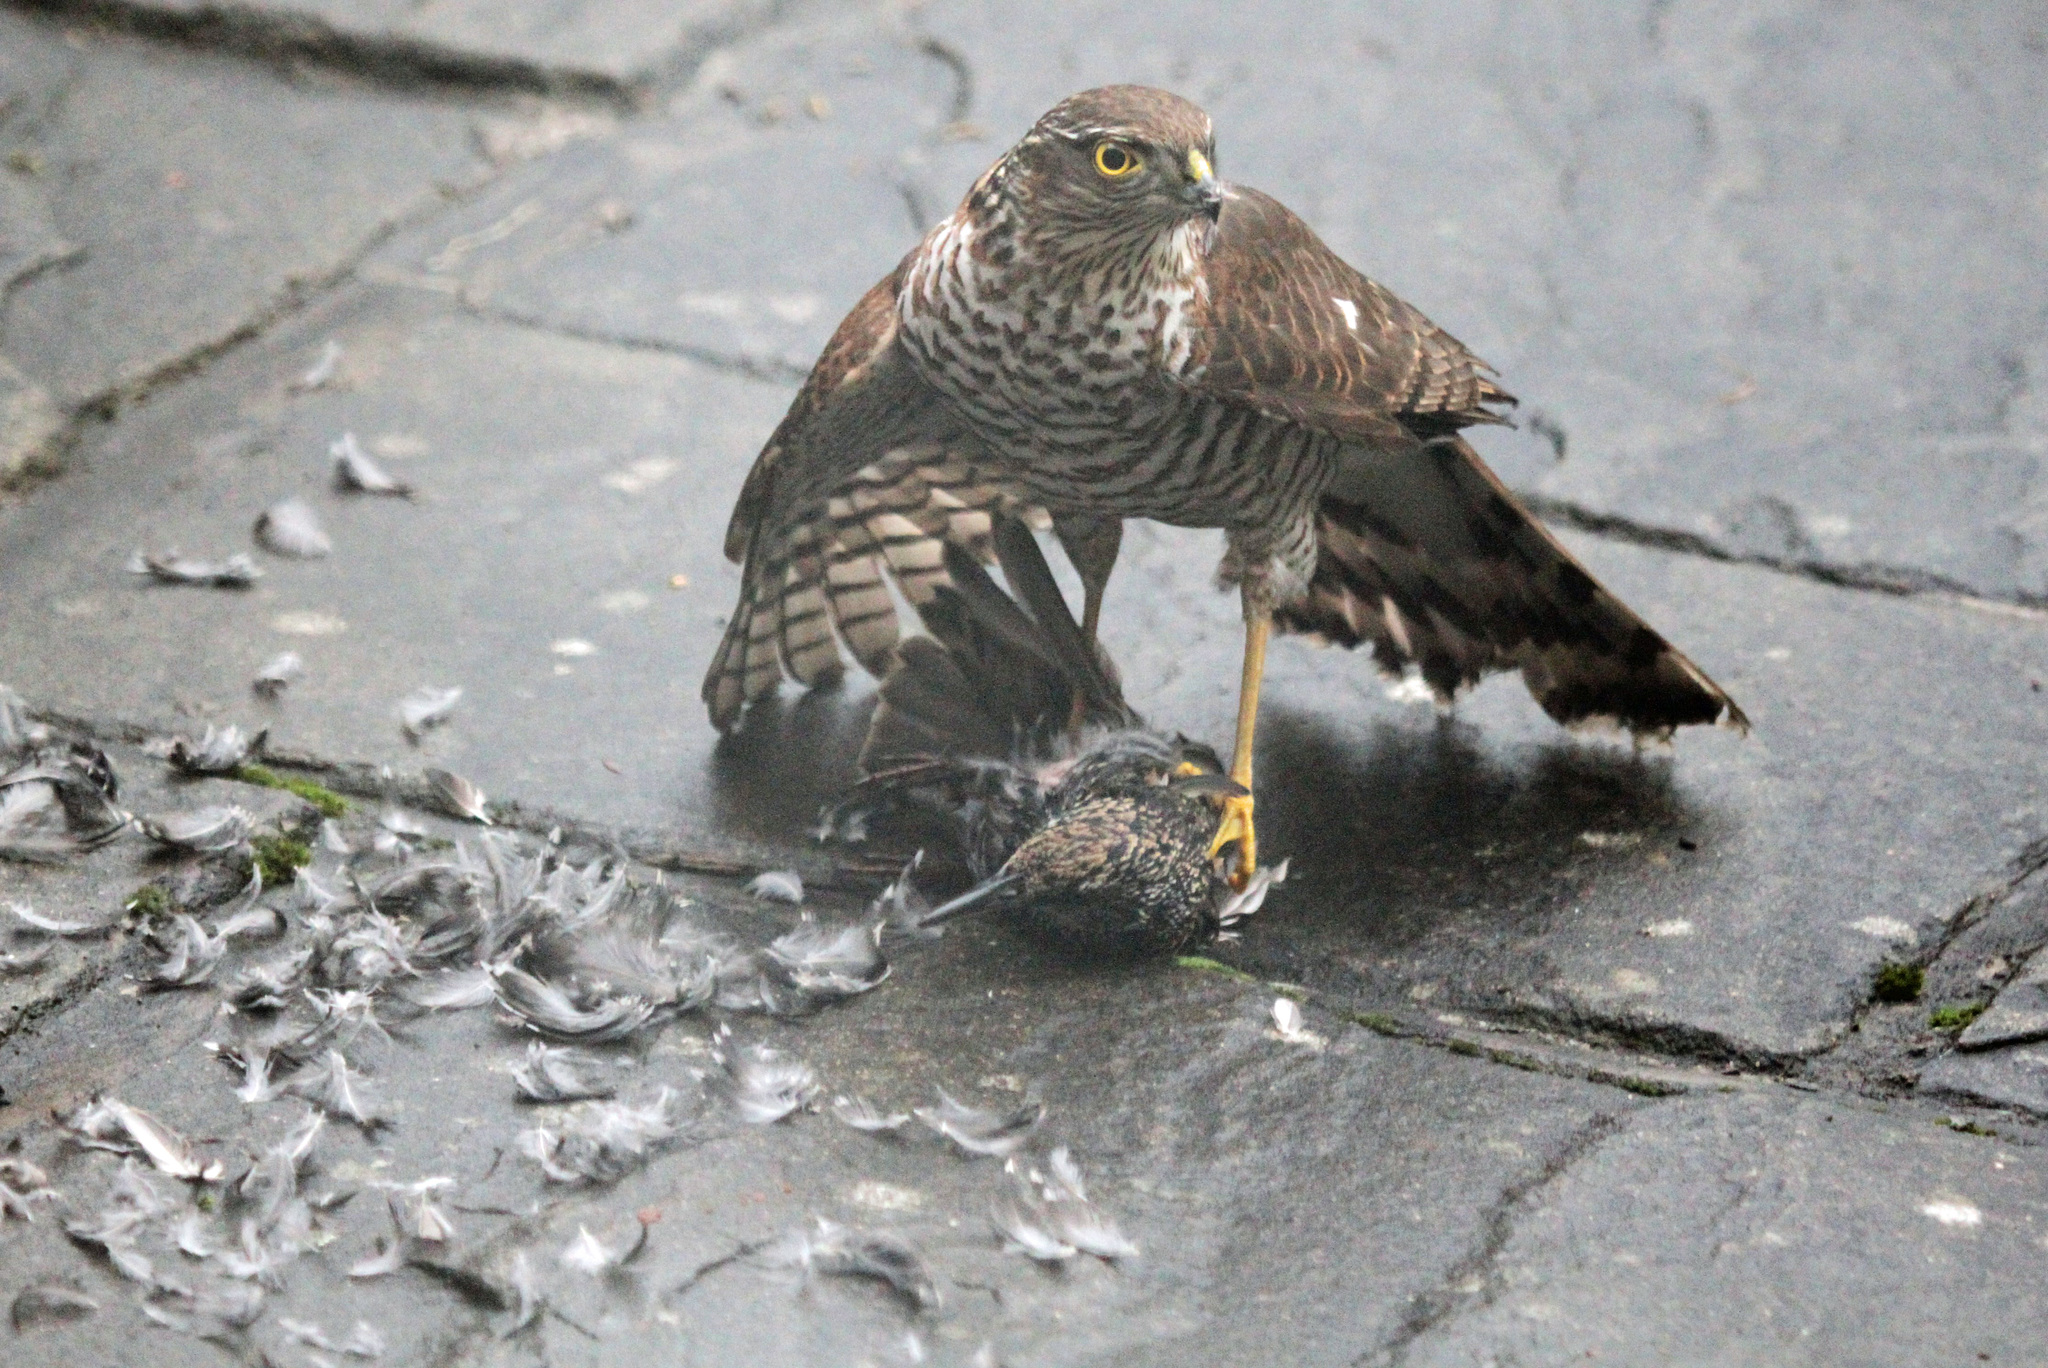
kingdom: Animalia
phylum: Chordata
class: Aves
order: Accipitriformes
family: Accipitridae
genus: Accipiter
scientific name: Accipiter nisus
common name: Eurasian sparrowhawk
